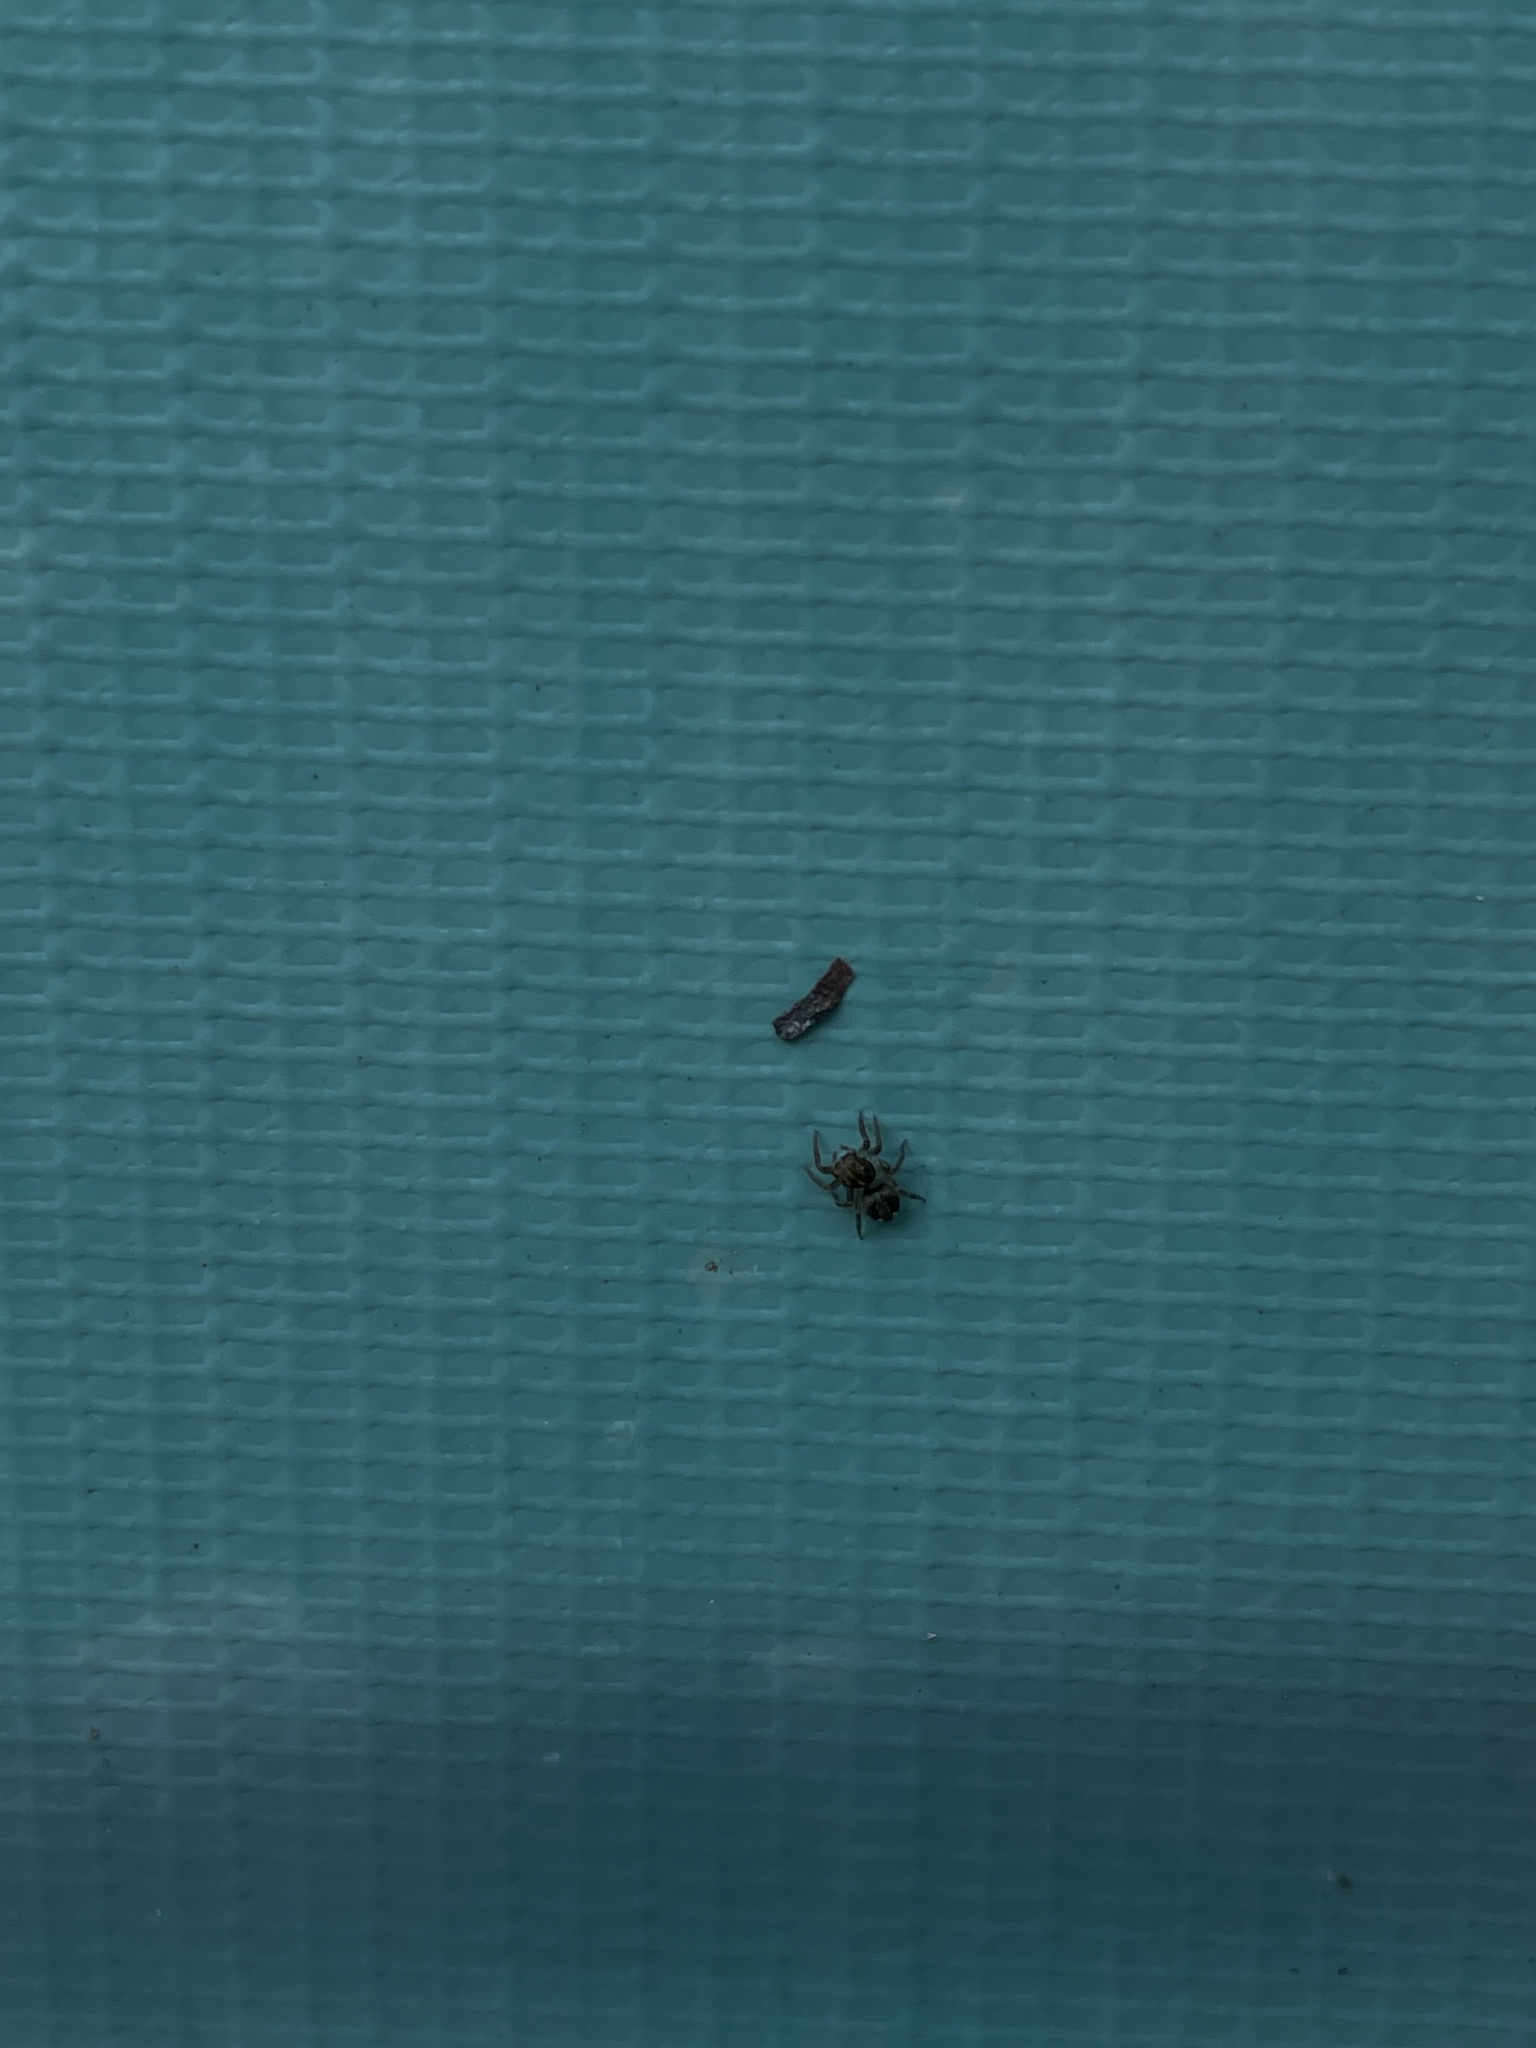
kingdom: Animalia
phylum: Arthropoda
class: Arachnida
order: Araneae
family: Salticidae
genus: Hasarius
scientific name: Hasarius adansoni
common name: Jumping spider
